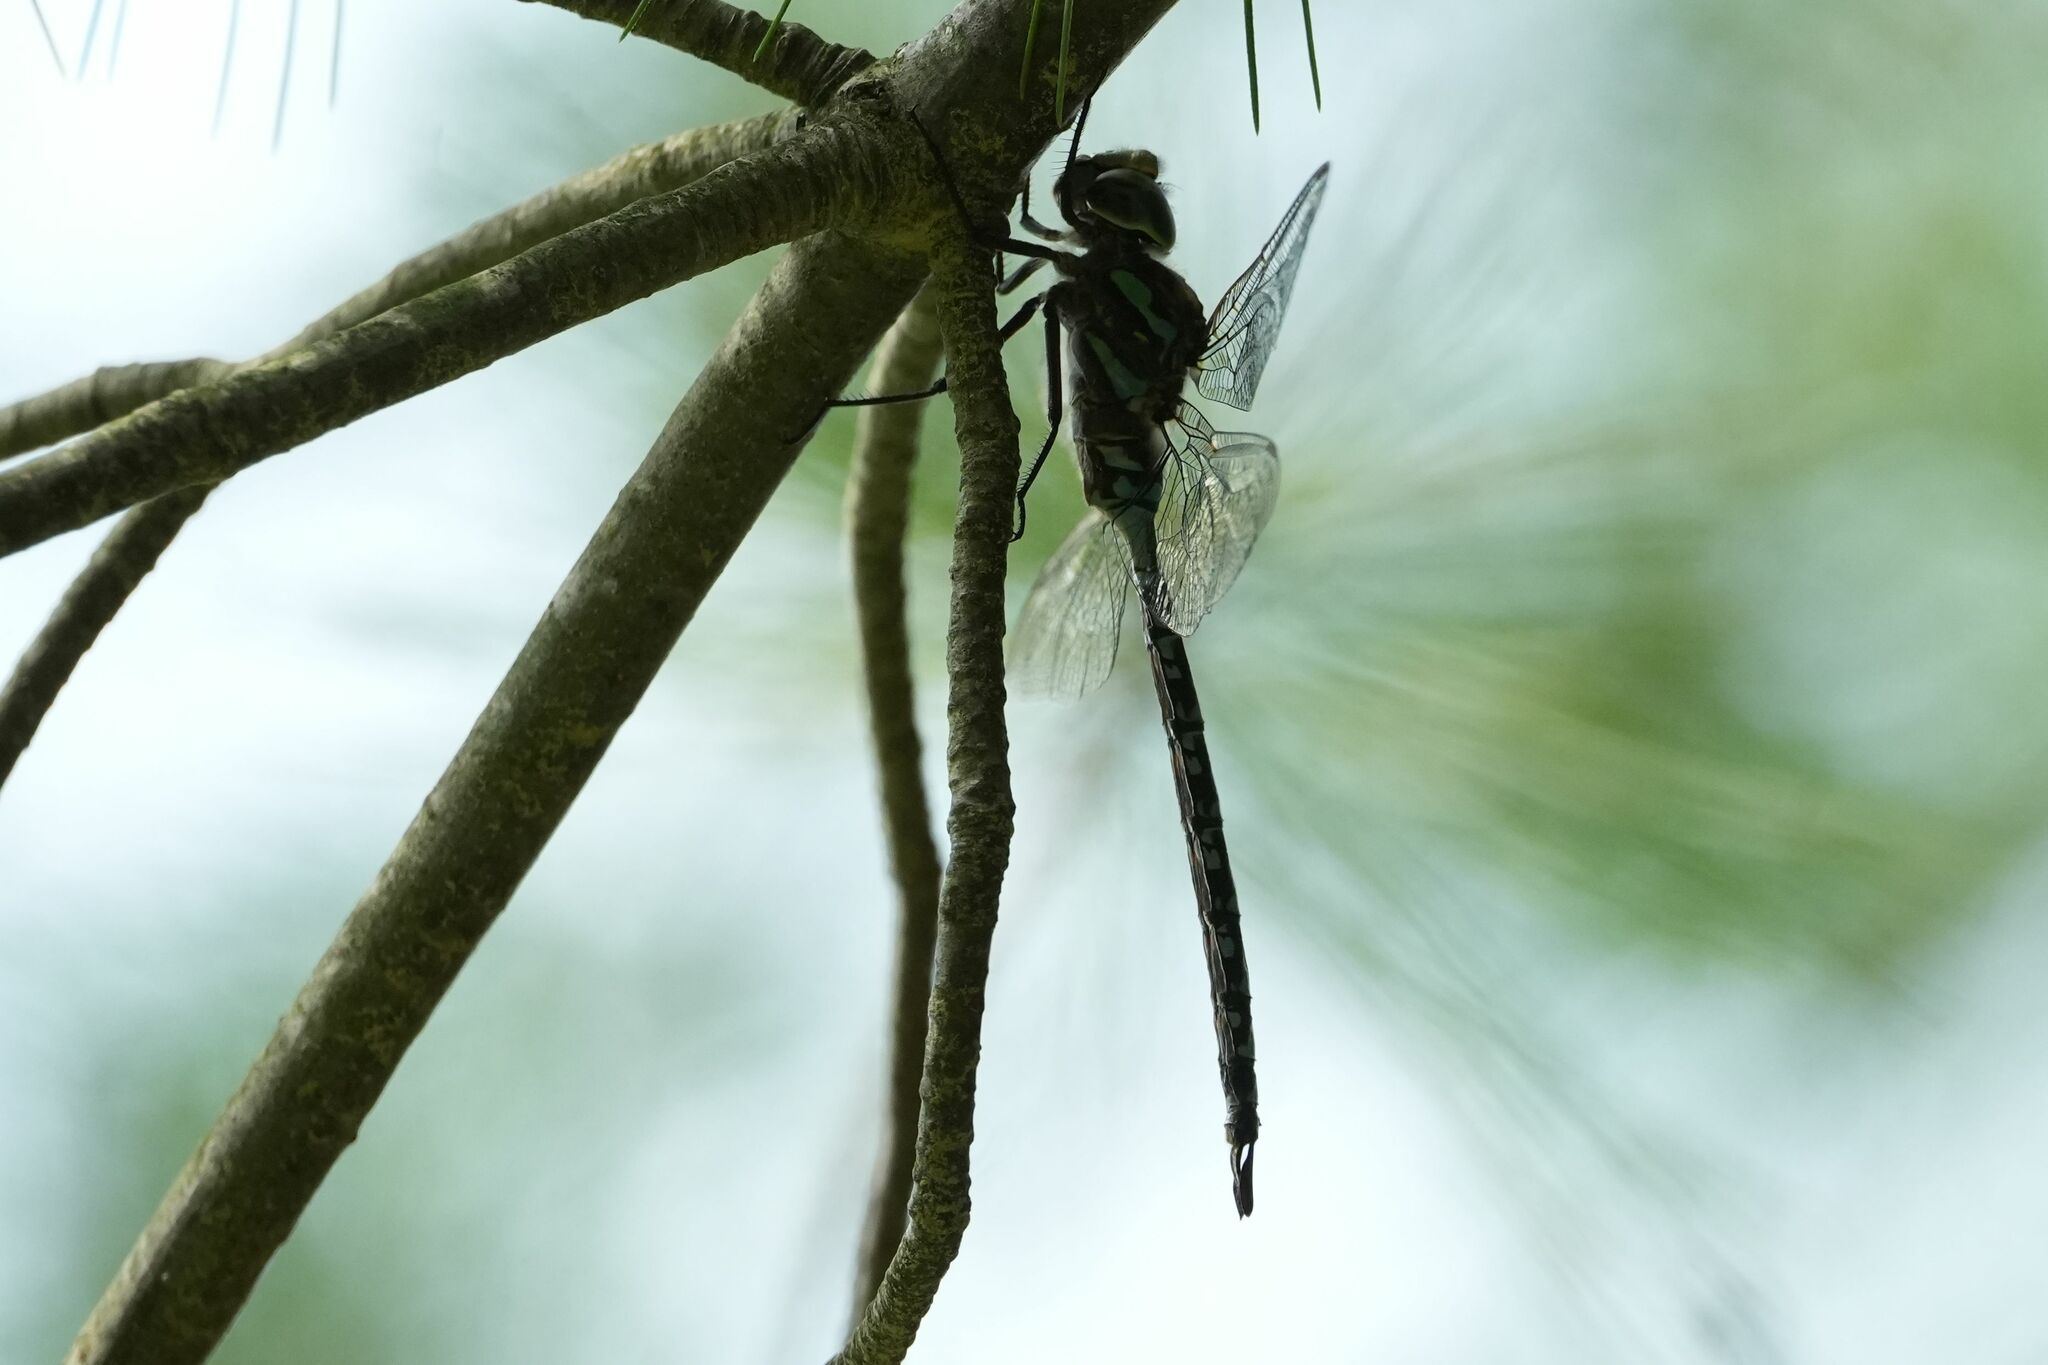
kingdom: Animalia
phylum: Arthropoda
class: Insecta
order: Odonata
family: Aeshnidae
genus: Aeshna
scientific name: Aeshna canadensis
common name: Canada darner
